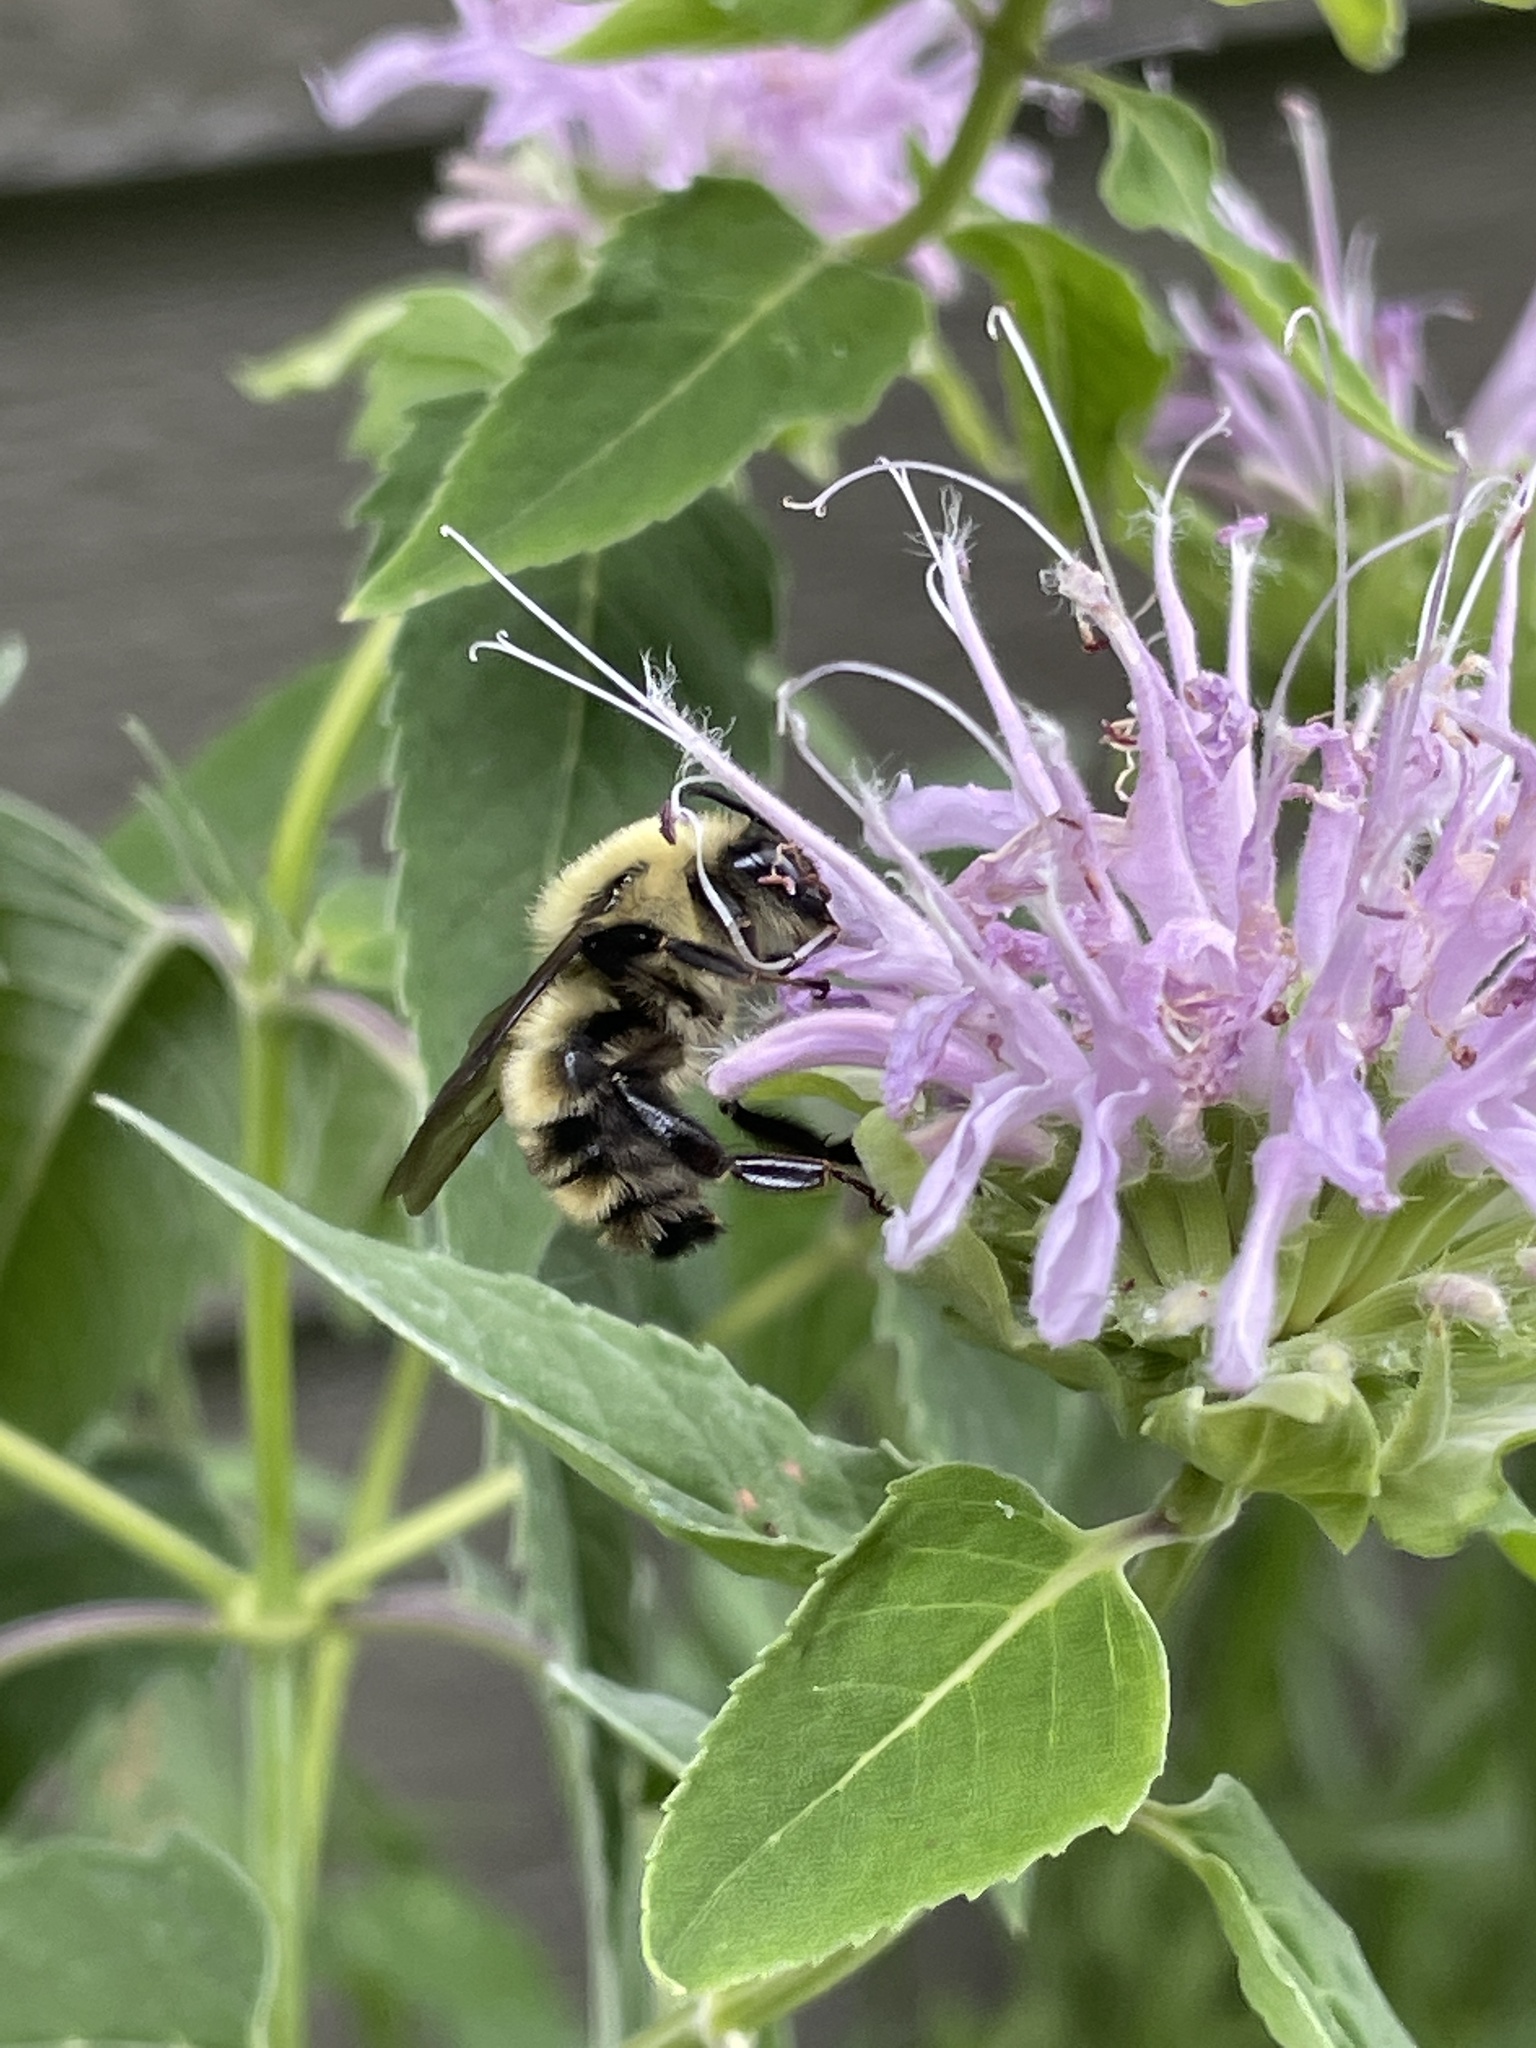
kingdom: Animalia
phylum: Arthropoda
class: Insecta
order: Hymenoptera
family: Apidae
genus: Bombus
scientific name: Bombus bimaculatus
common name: Two-spotted bumble bee
